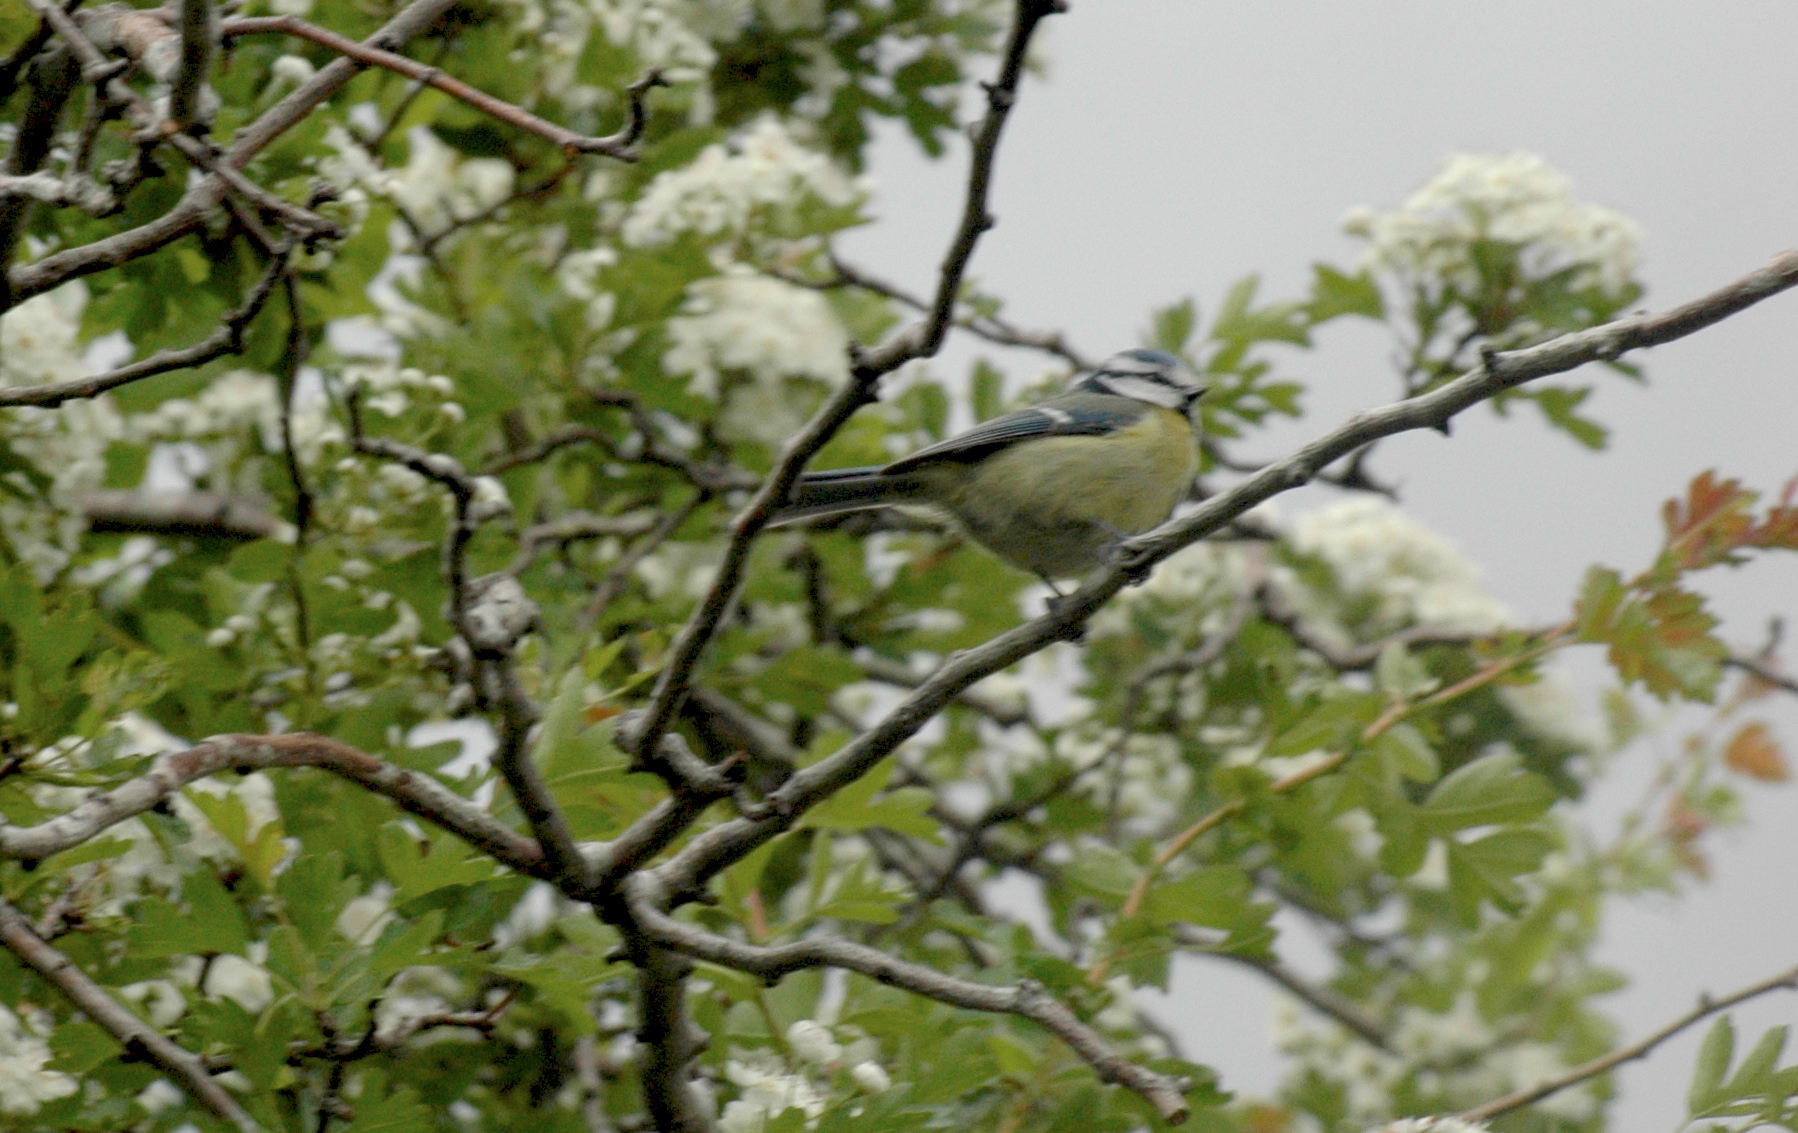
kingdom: Animalia
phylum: Chordata
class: Aves
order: Passeriformes
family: Paridae
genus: Cyanistes
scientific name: Cyanistes caeruleus
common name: Eurasian blue tit
